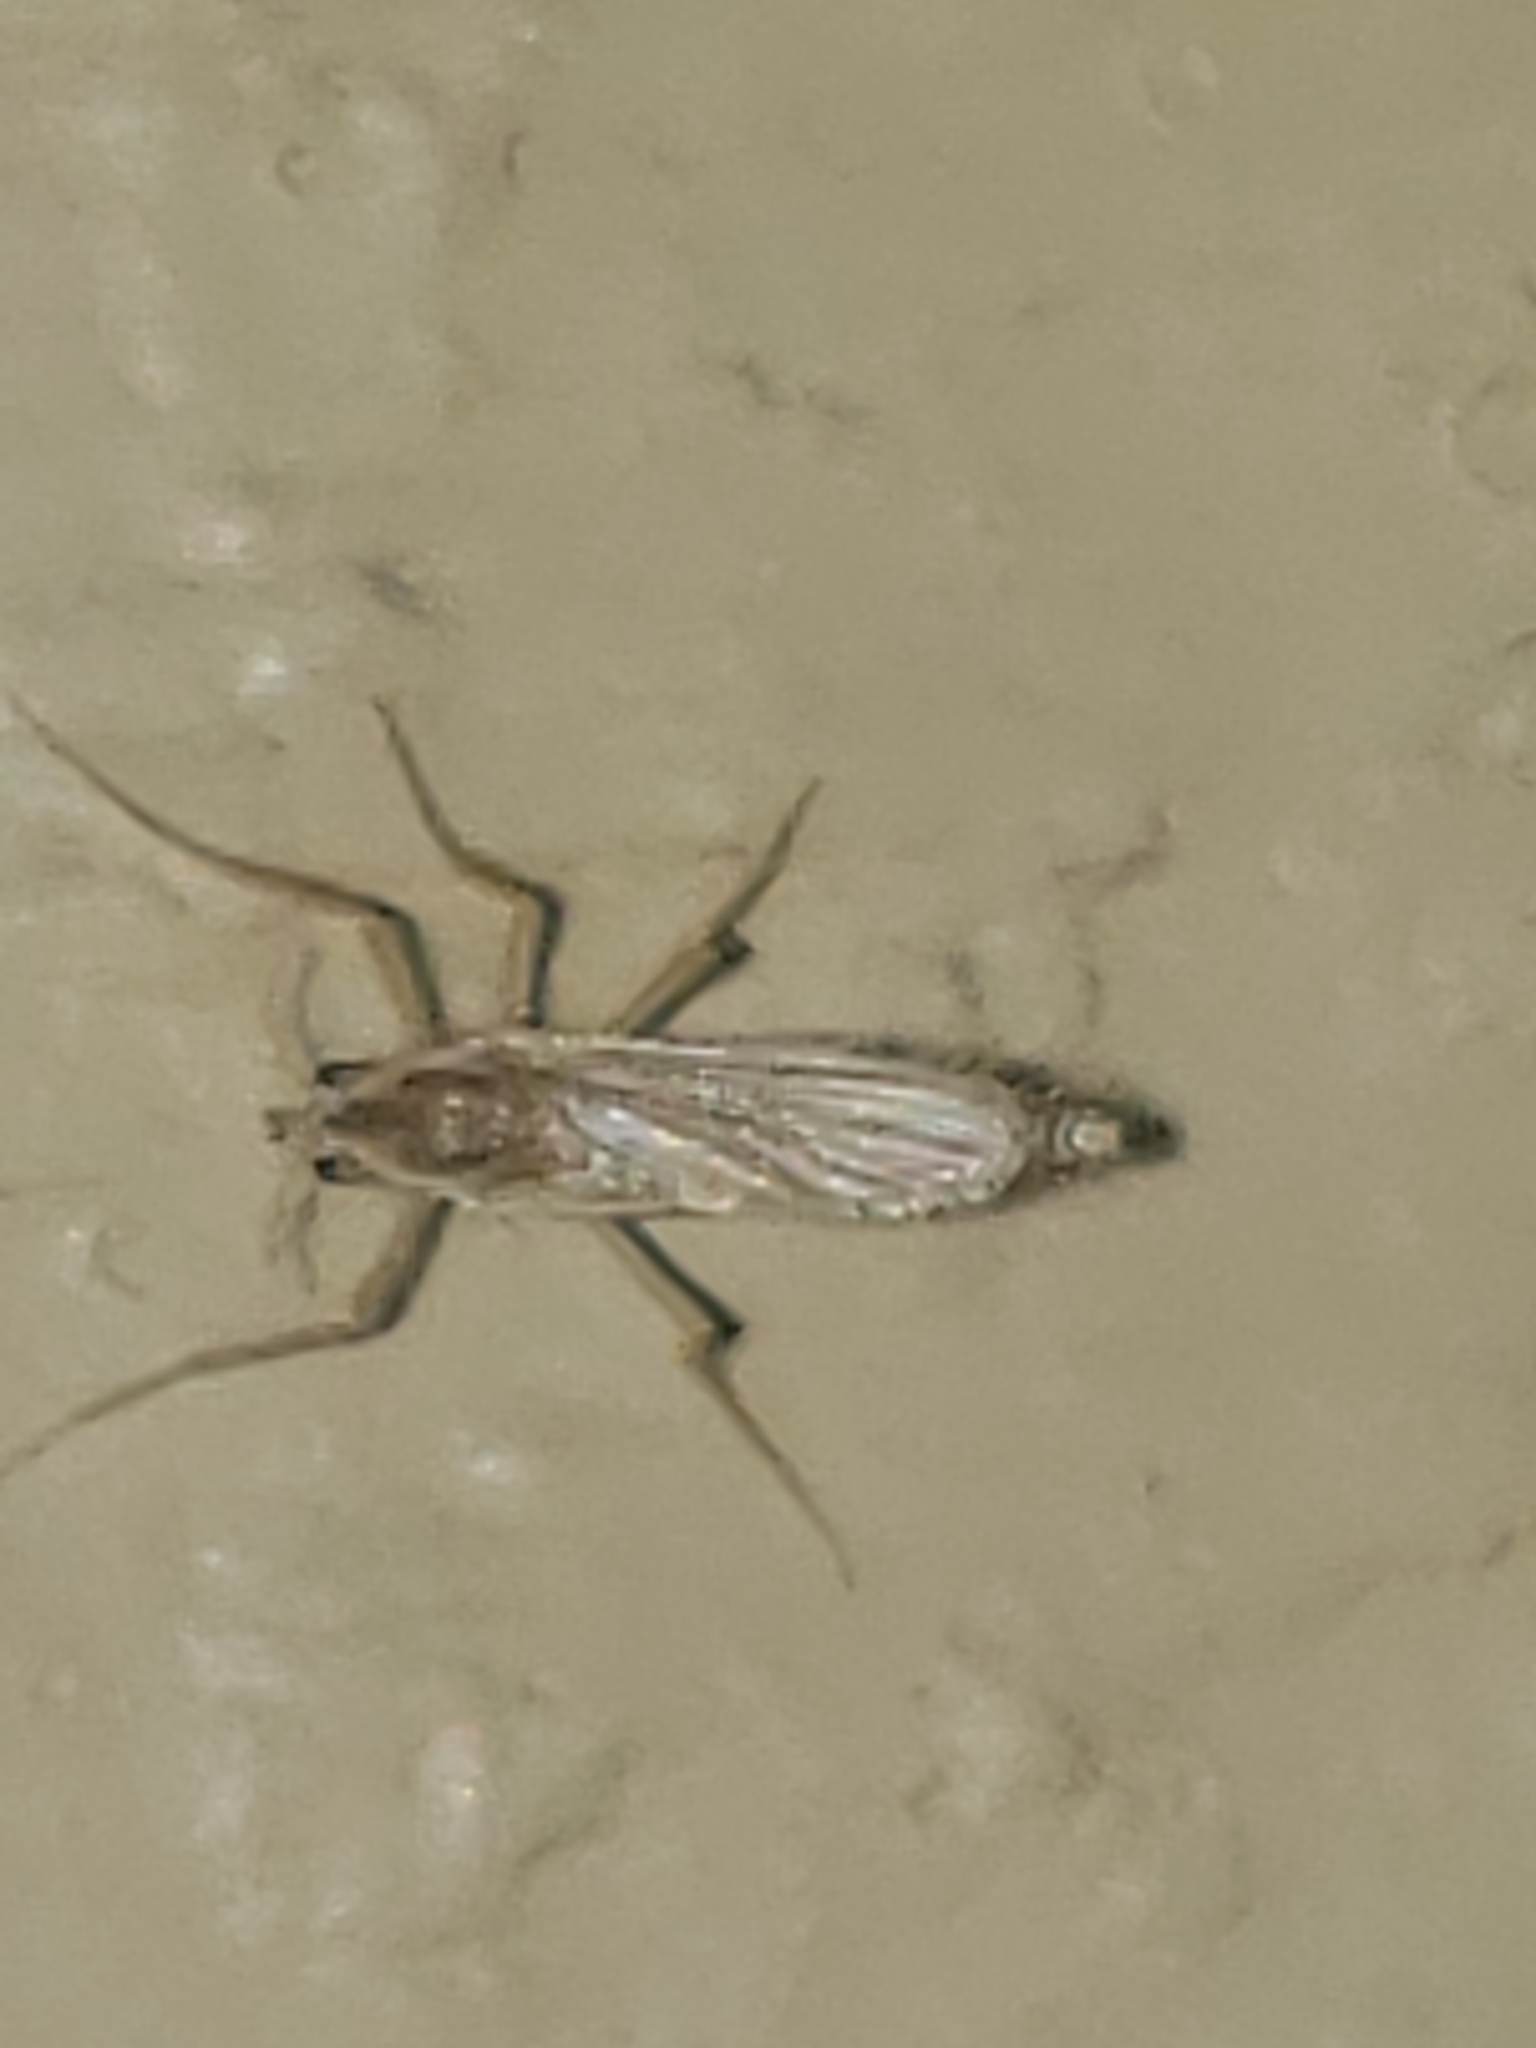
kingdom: Animalia
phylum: Arthropoda
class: Insecta
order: Diptera
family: Chaoboridae
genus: Chaoborus
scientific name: Chaoborus
